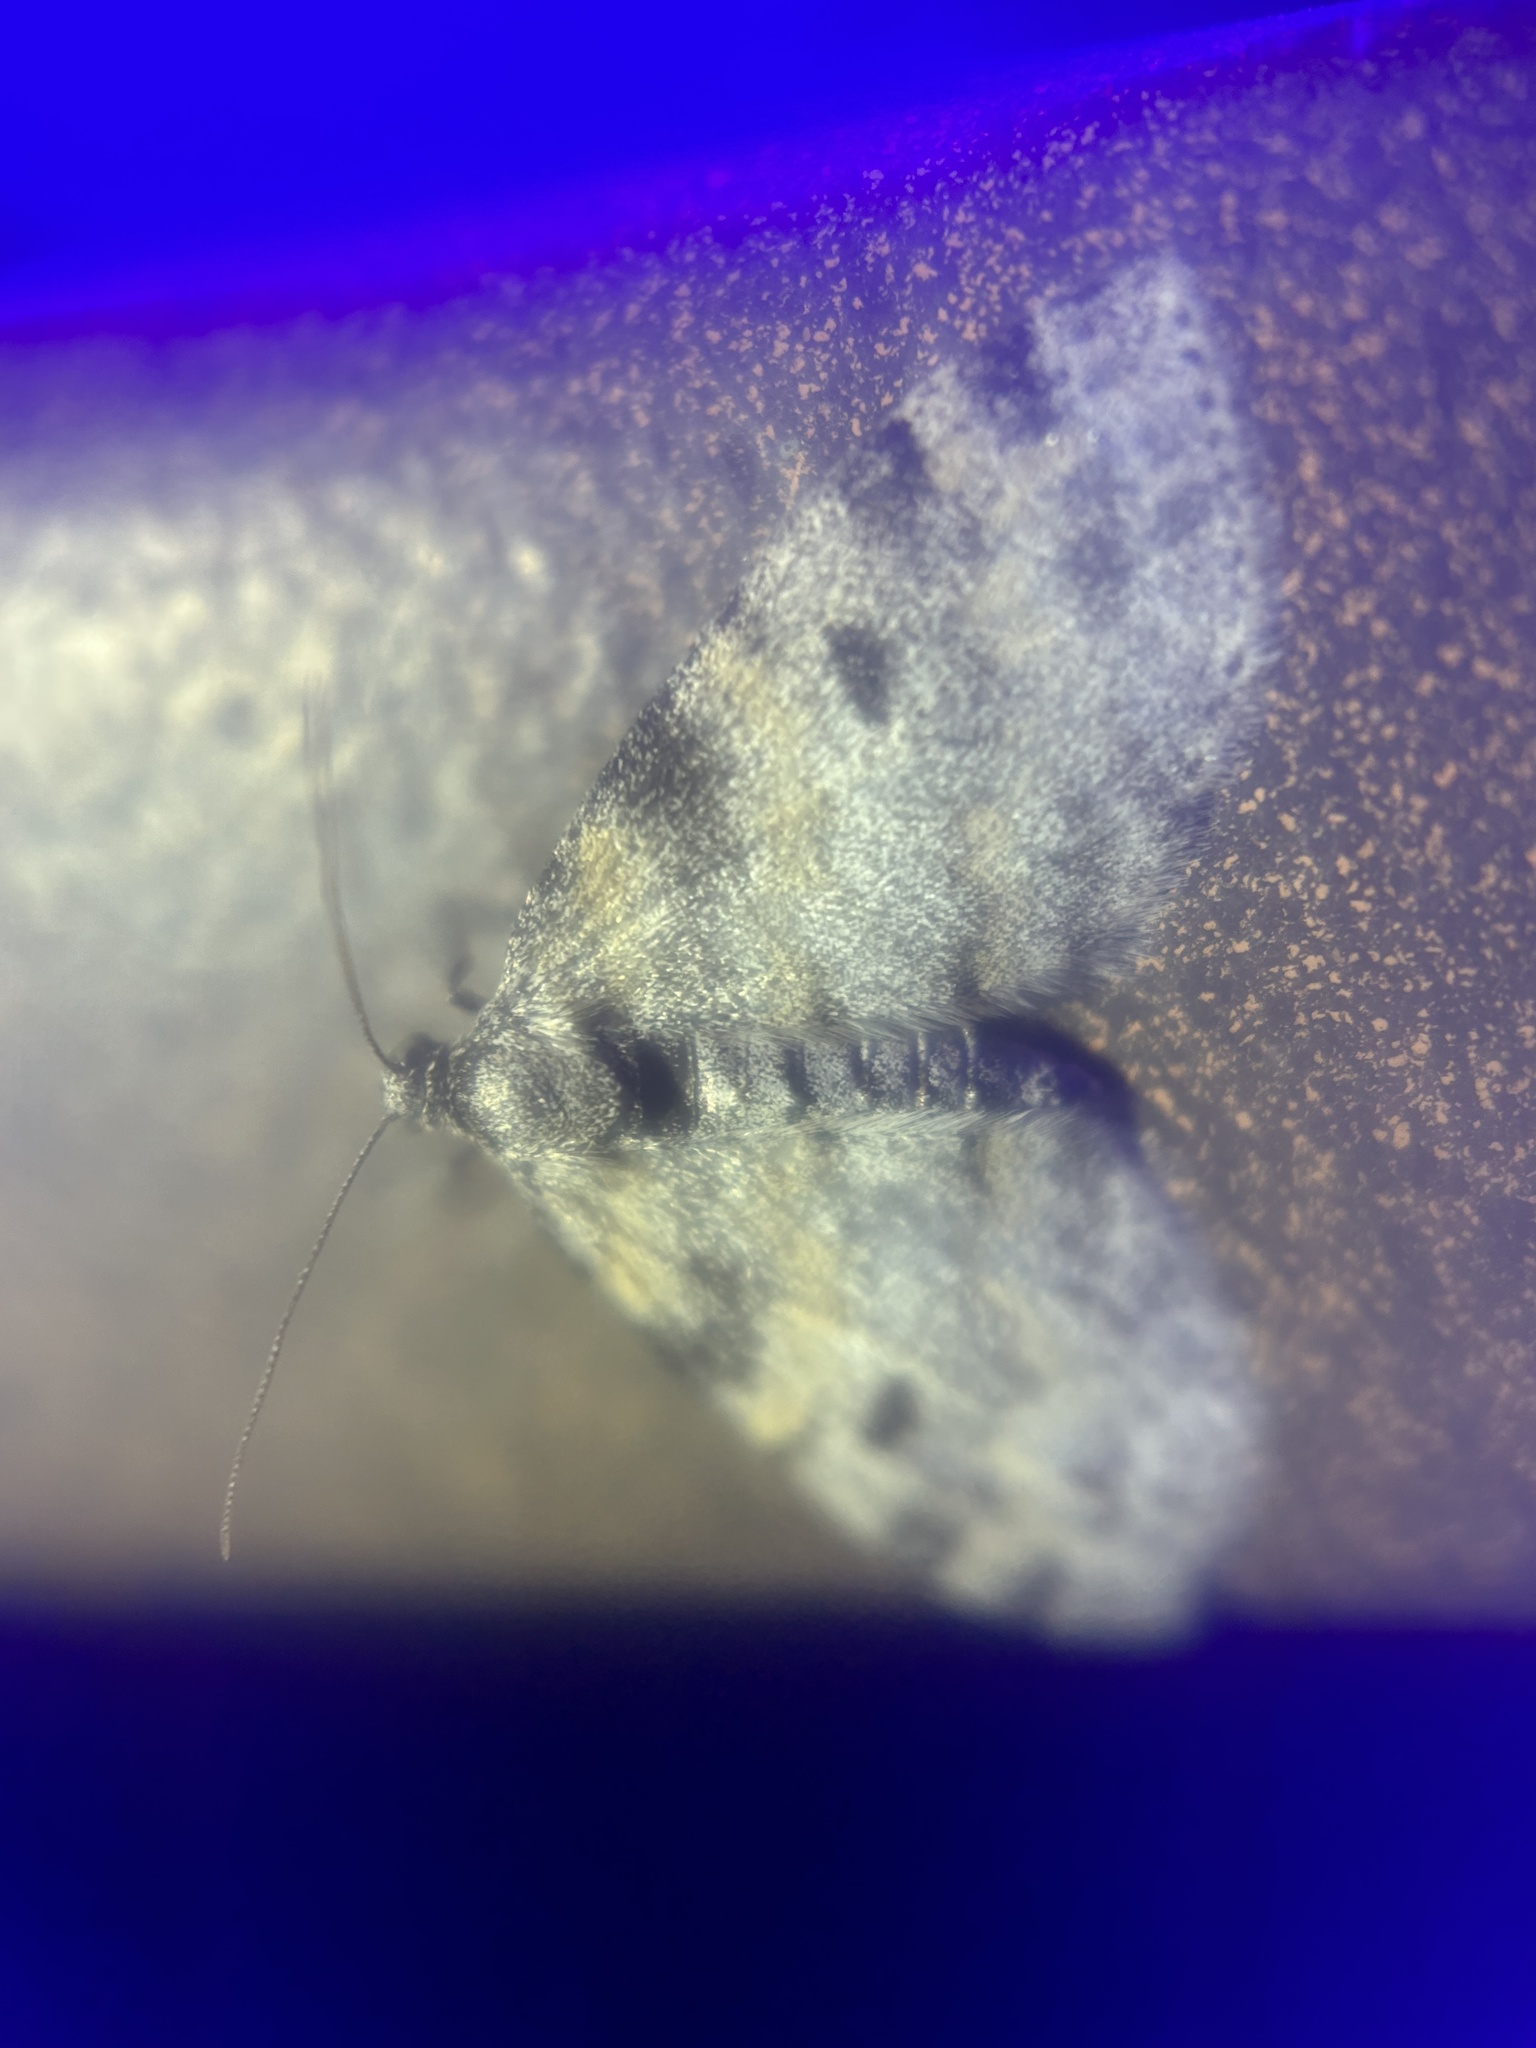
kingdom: Animalia
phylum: Arthropoda
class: Insecta
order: Lepidoptera
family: Geometridae
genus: Lobophora
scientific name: Lobophora nivigerata
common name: Powdered bigwing
